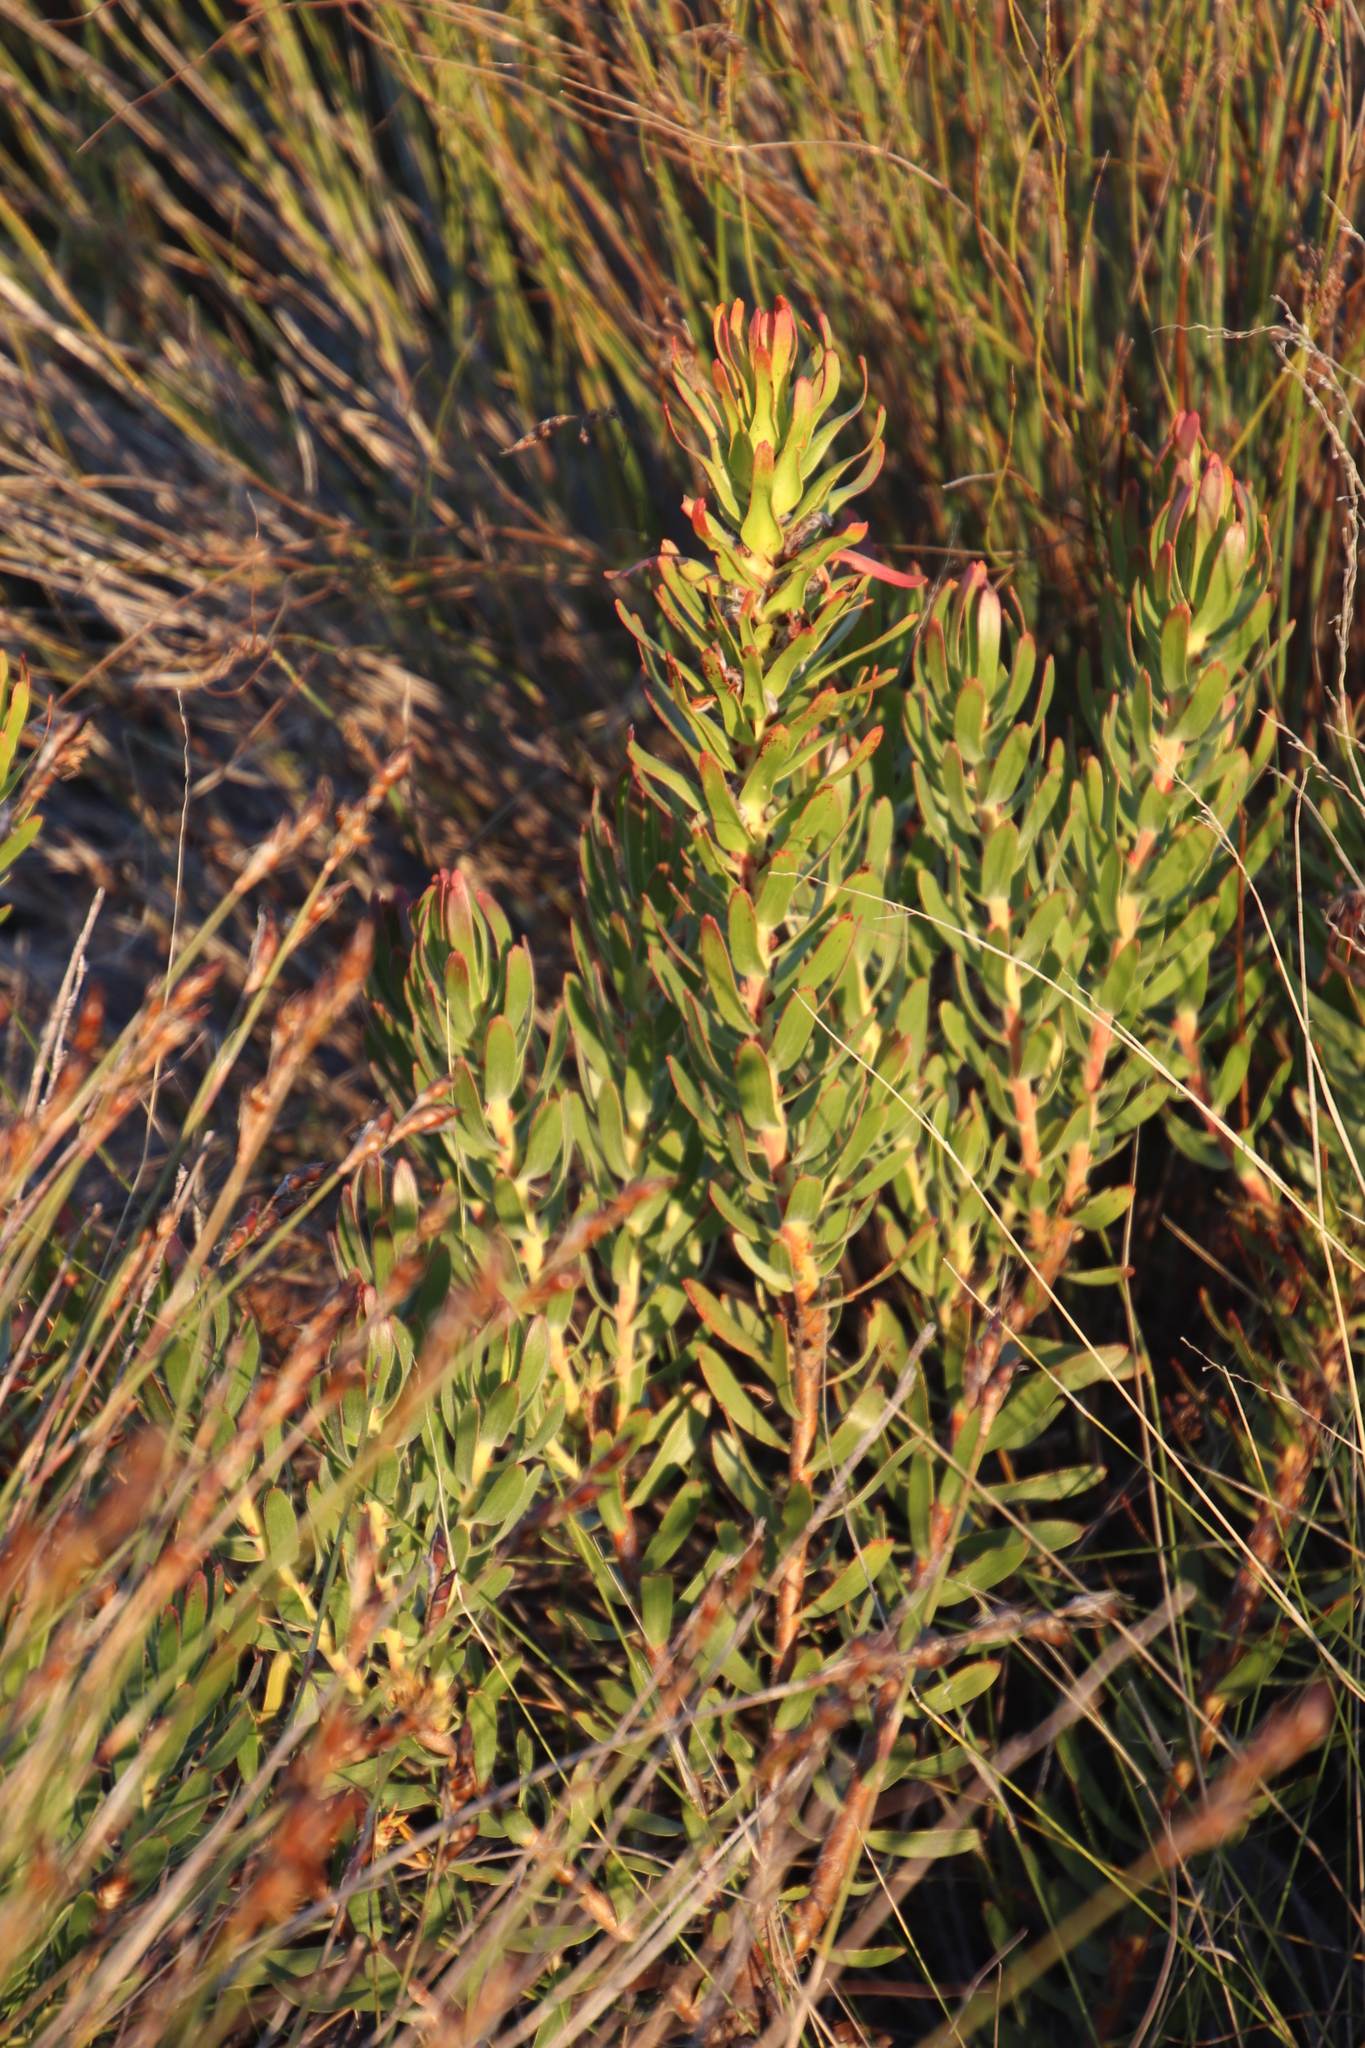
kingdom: Plantae
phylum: Tracheophyta
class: Magnoliopsida
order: Proteales
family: Proteaceae
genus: Mimetes
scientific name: Mimetes cucullatus
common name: Common pagoda
